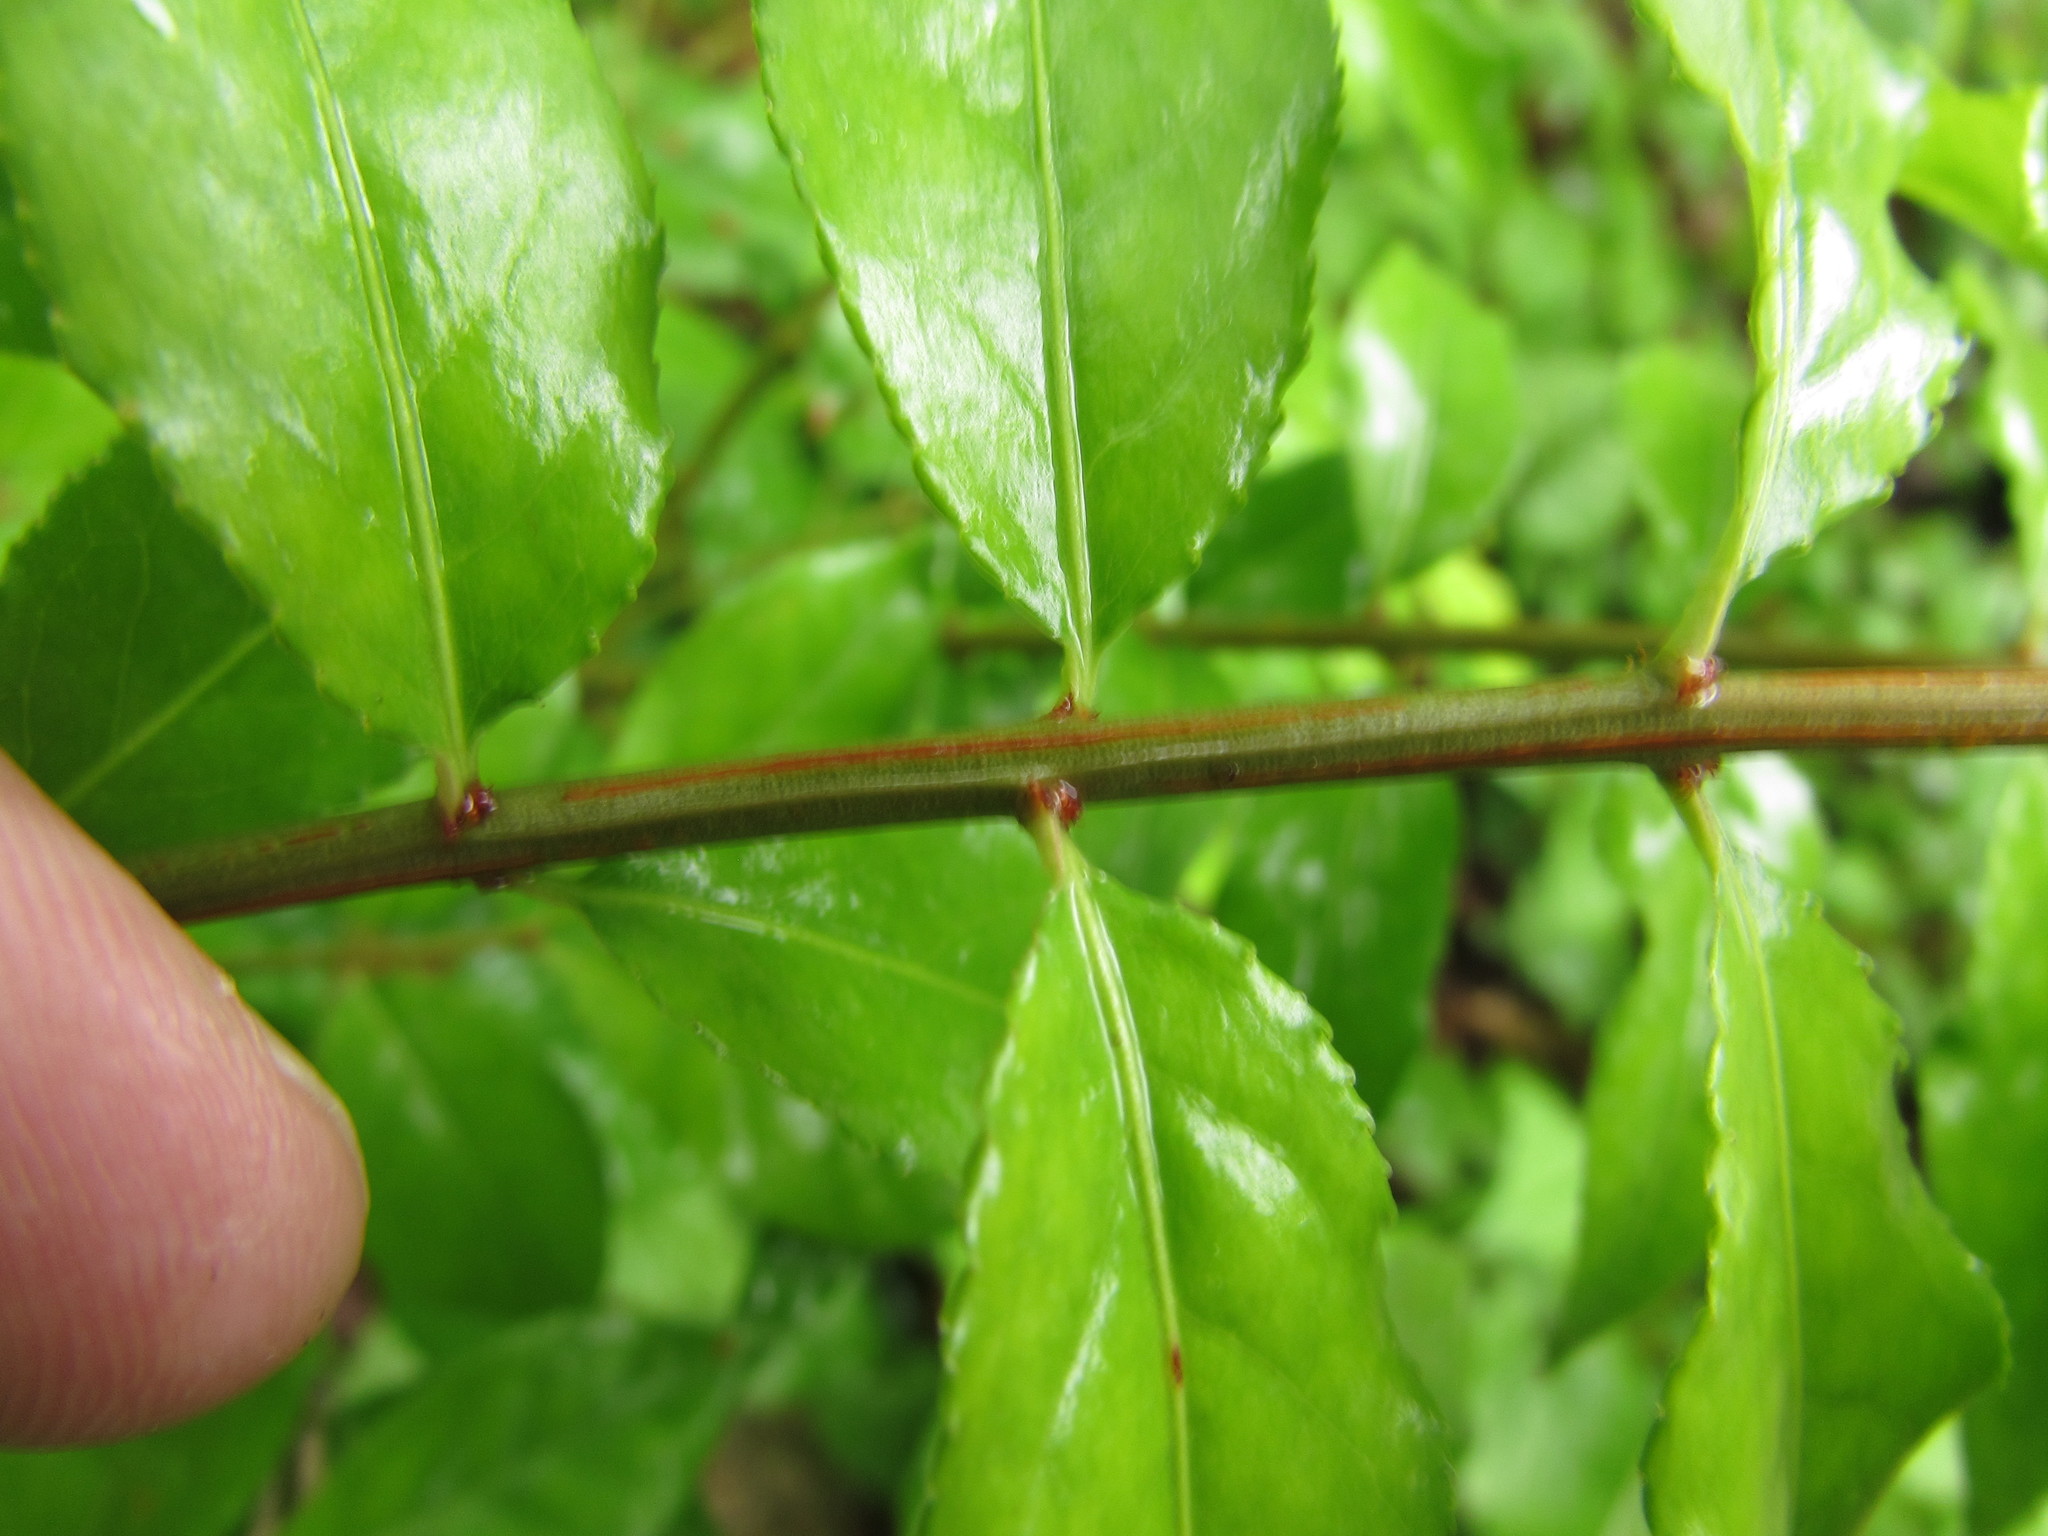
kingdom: Plantae
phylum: Tracheophyta
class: Magnoliopsida
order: Celastrales
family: Celastraceae
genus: Euonymus
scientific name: Euonymus alatus
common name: Winged euonymus
